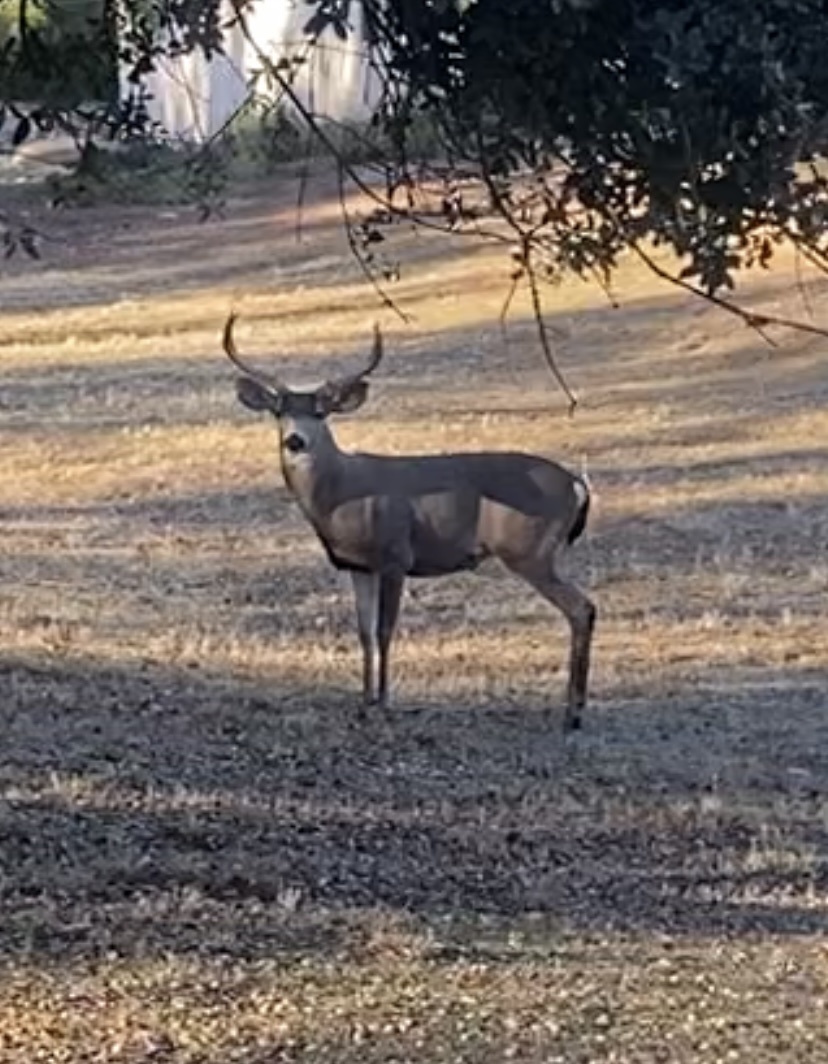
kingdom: Animalia
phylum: Chordata
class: Mammalia
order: Artiodactyla
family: Cervidae
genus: Odocoileus
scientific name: Odocoileus hemionus
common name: Mule deer
